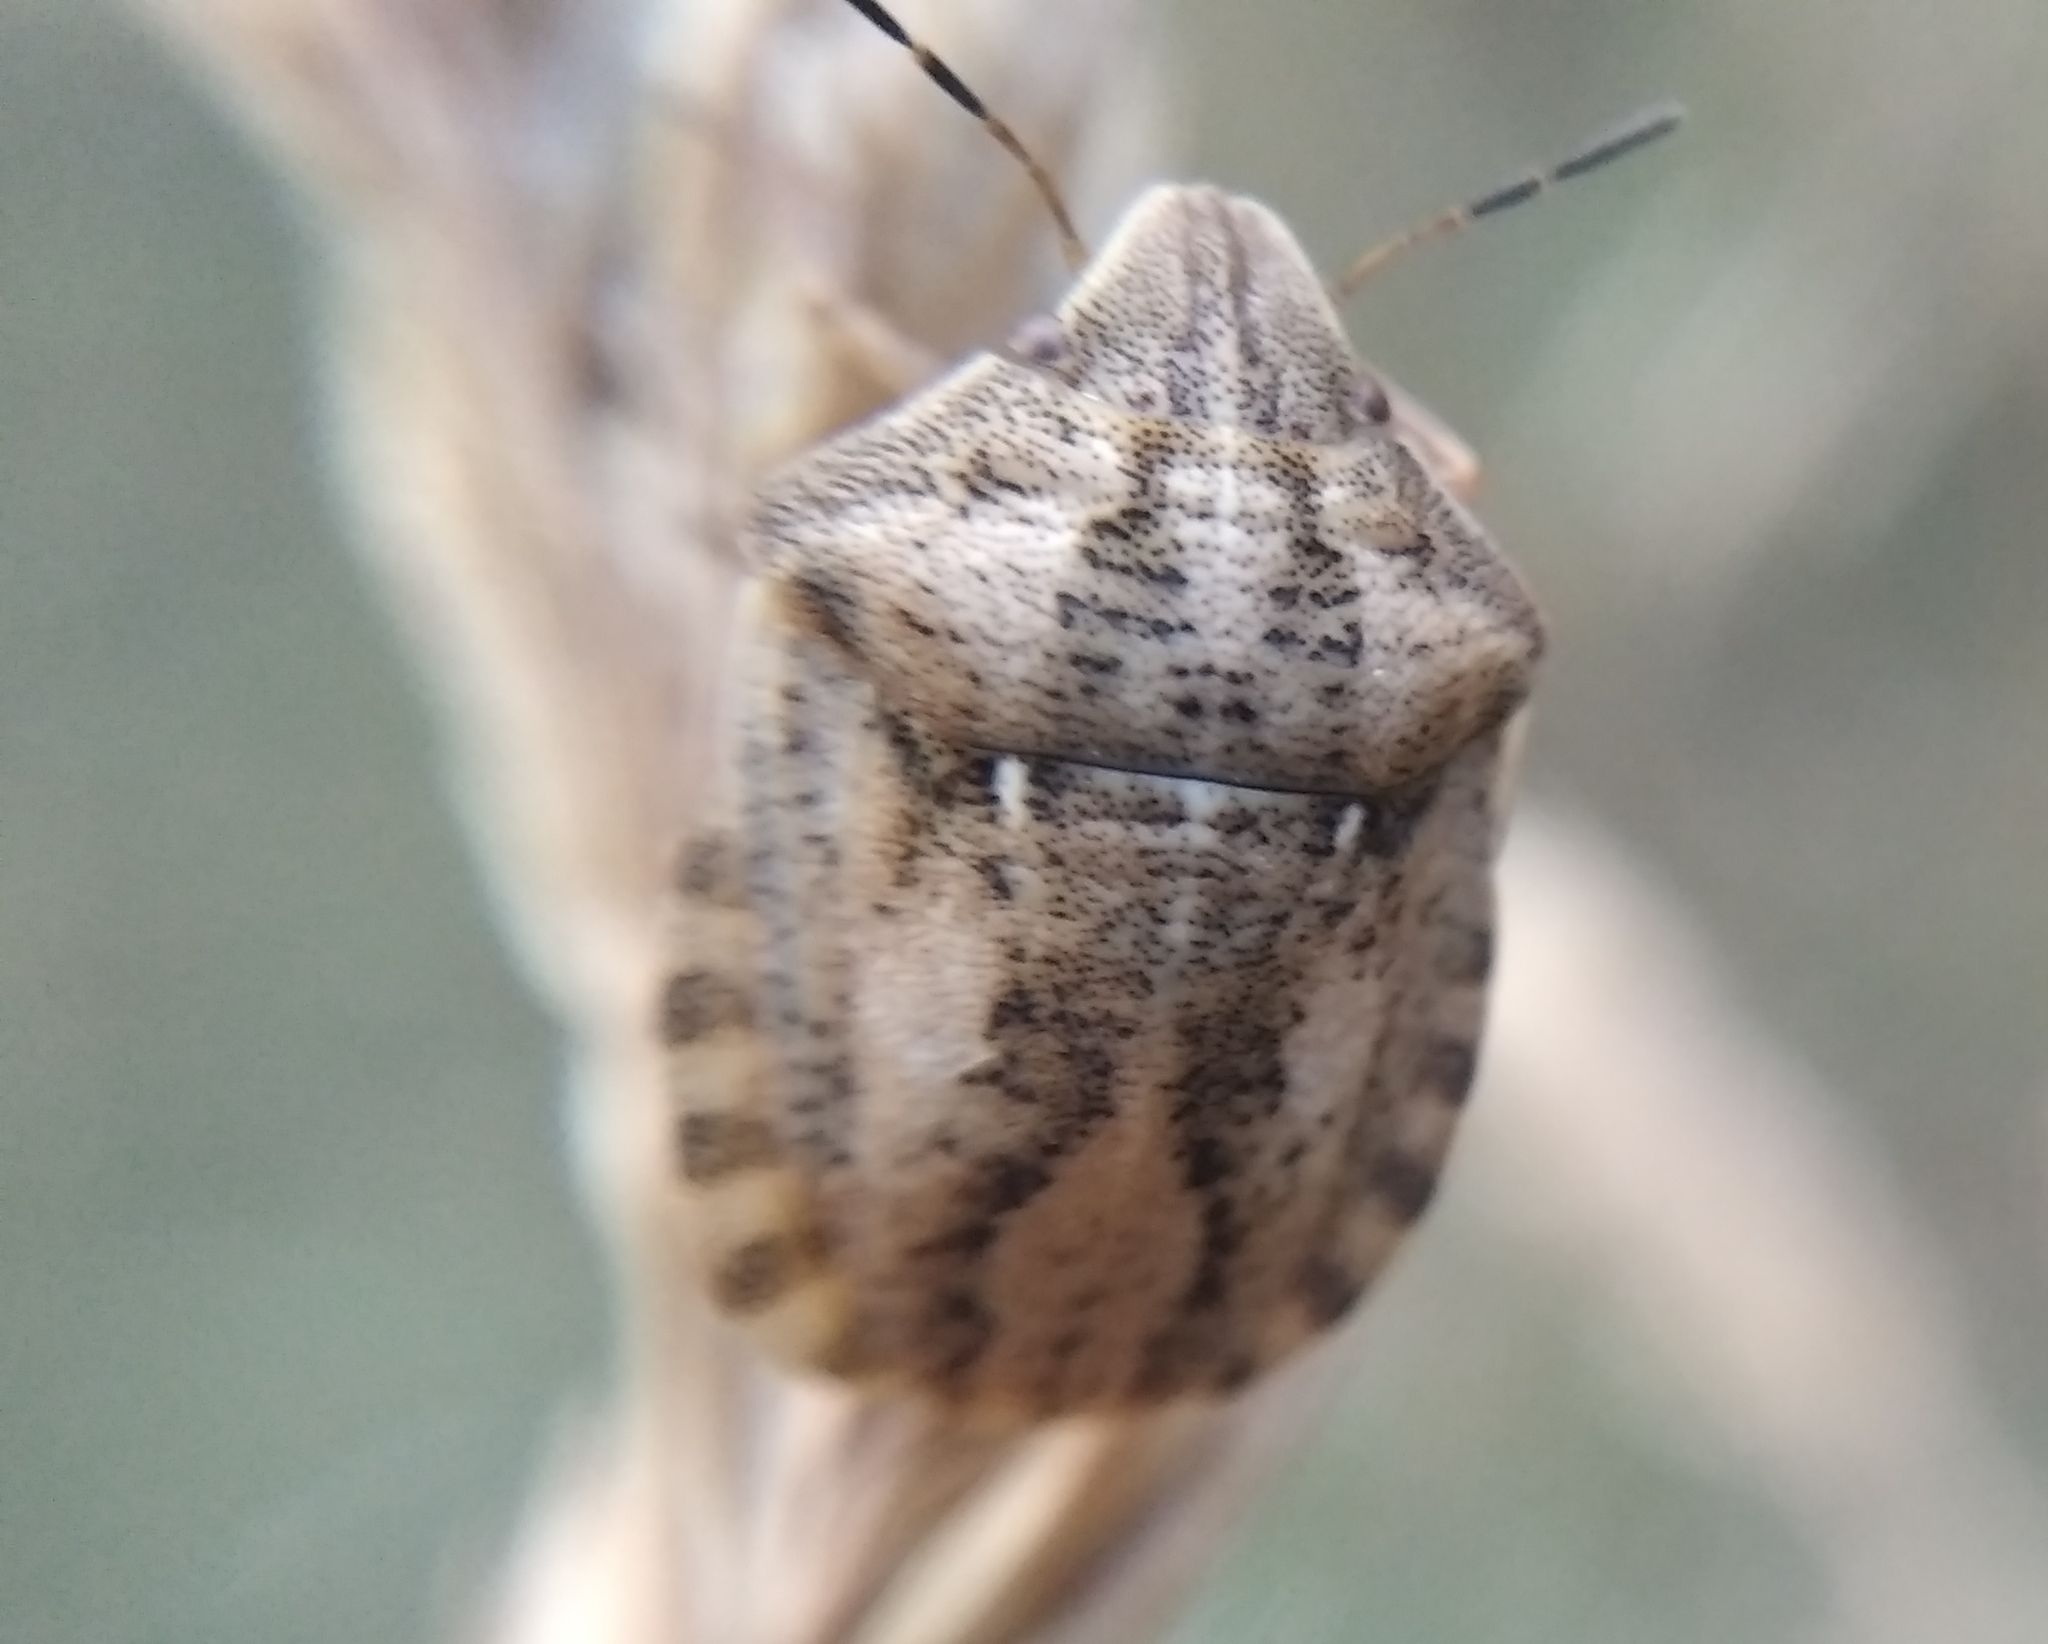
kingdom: Animalia
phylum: Arthropoda
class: Insecta
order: Hemiptera
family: Scutelleridae
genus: Eurygaster
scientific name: Eurygaster testudinaria
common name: Tortoise bug
